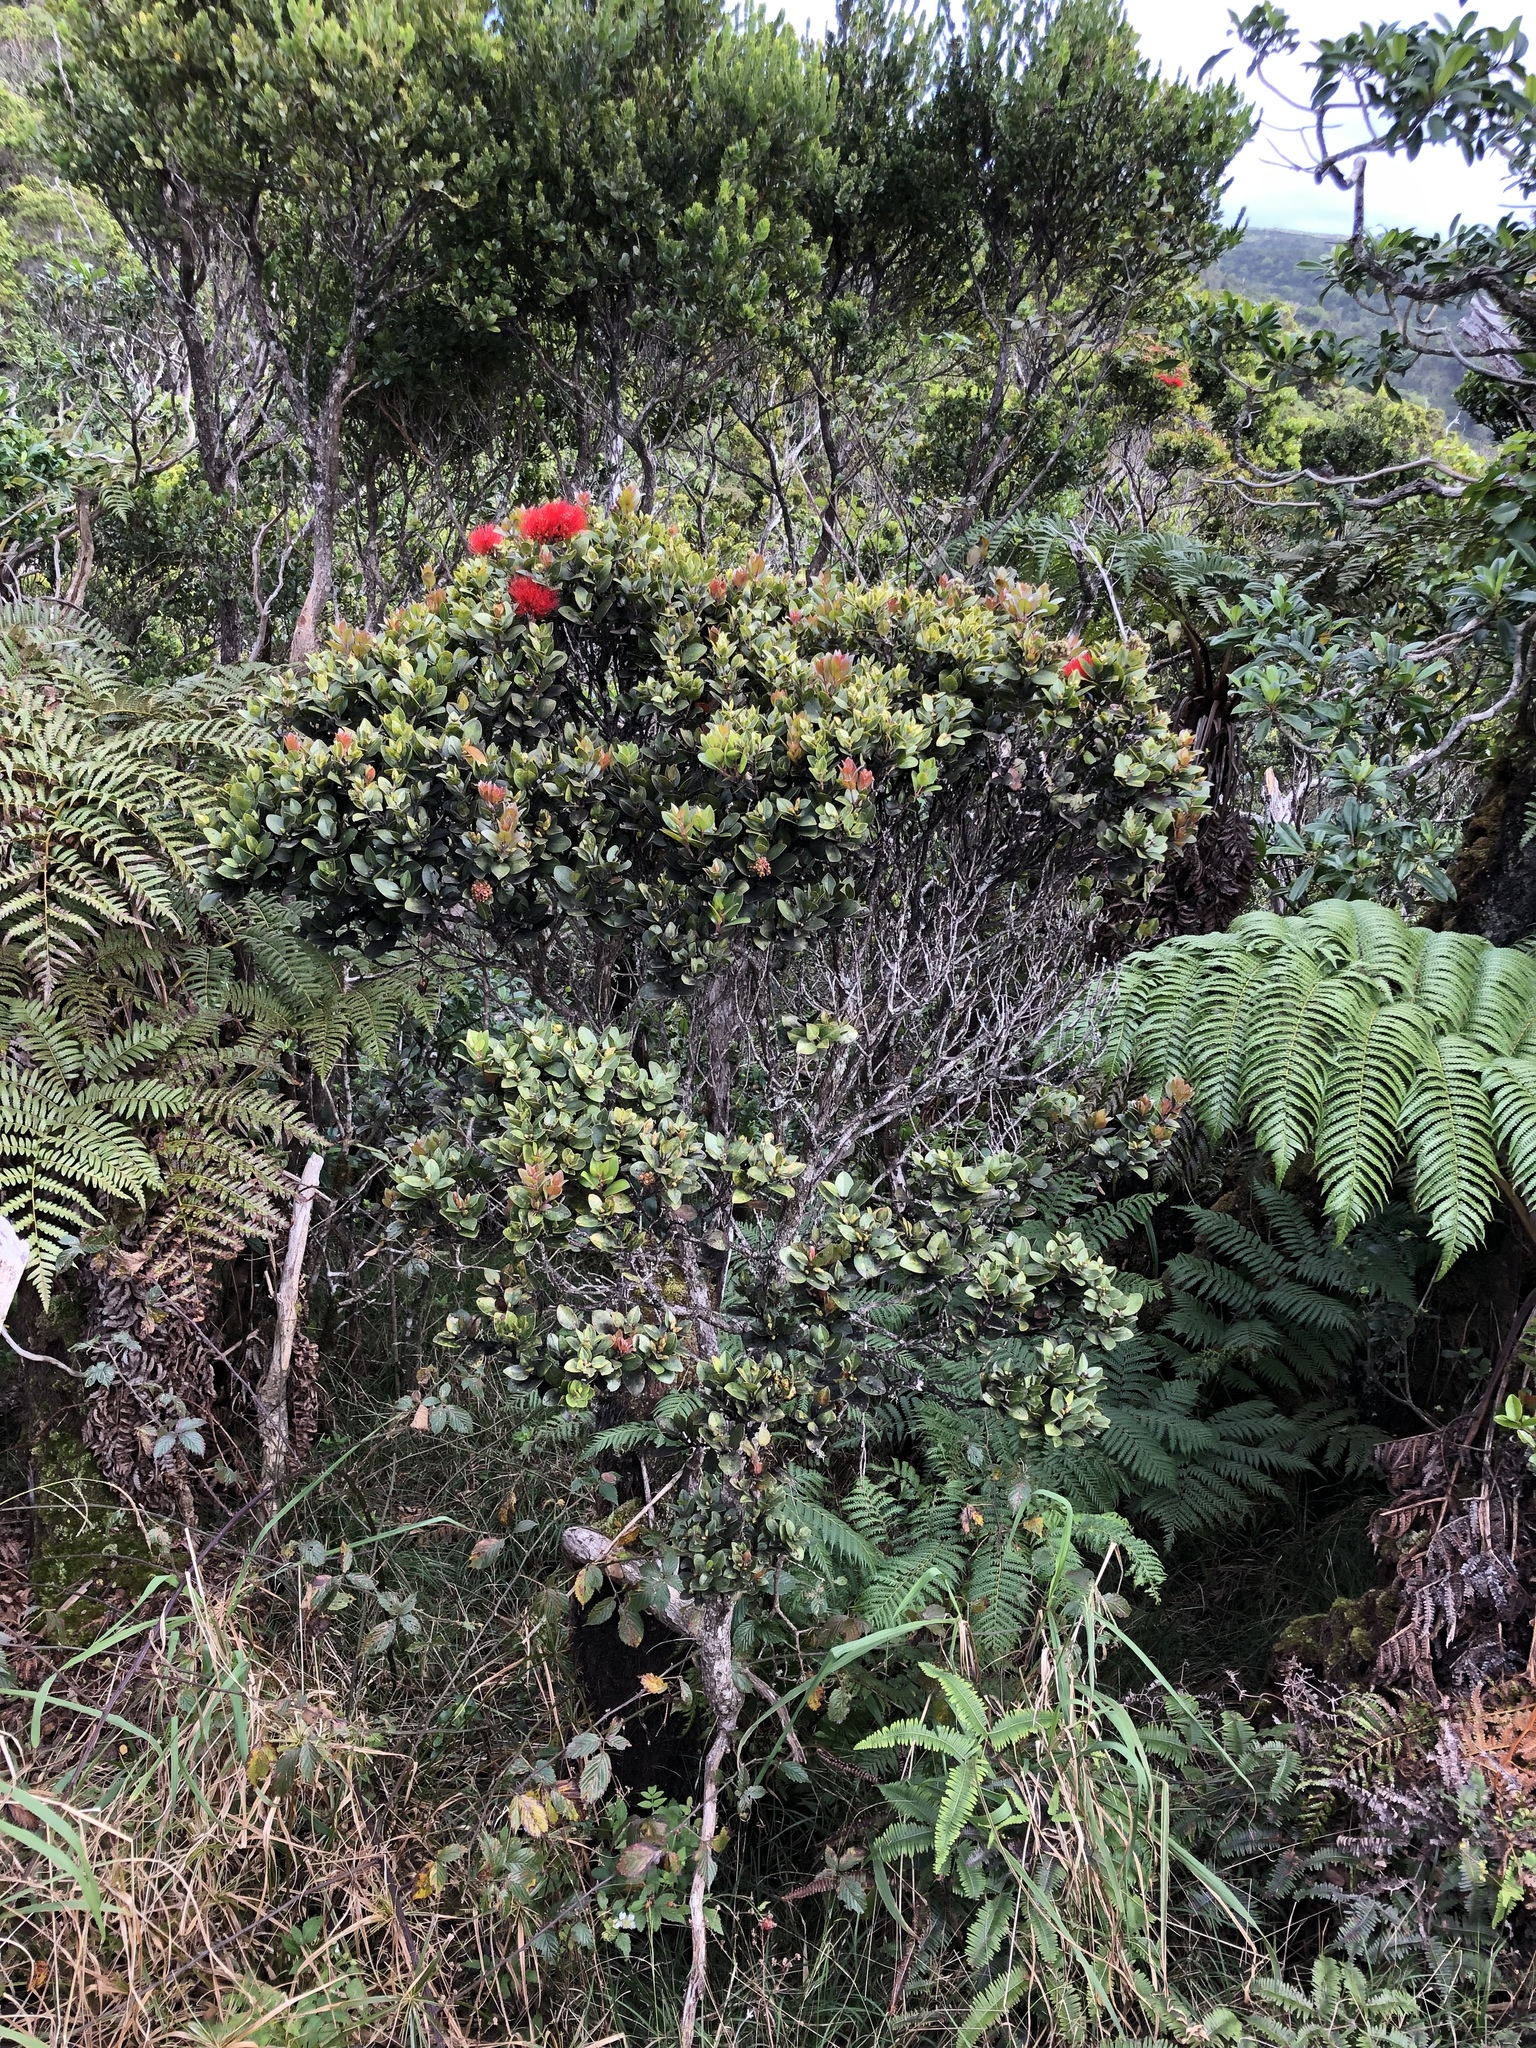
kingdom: Plantae
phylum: Tracheophyta
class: Magnoliopsida
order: Myrtales
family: Myrtaceae
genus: Metrosideros
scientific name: Metrosideros polymorpha
